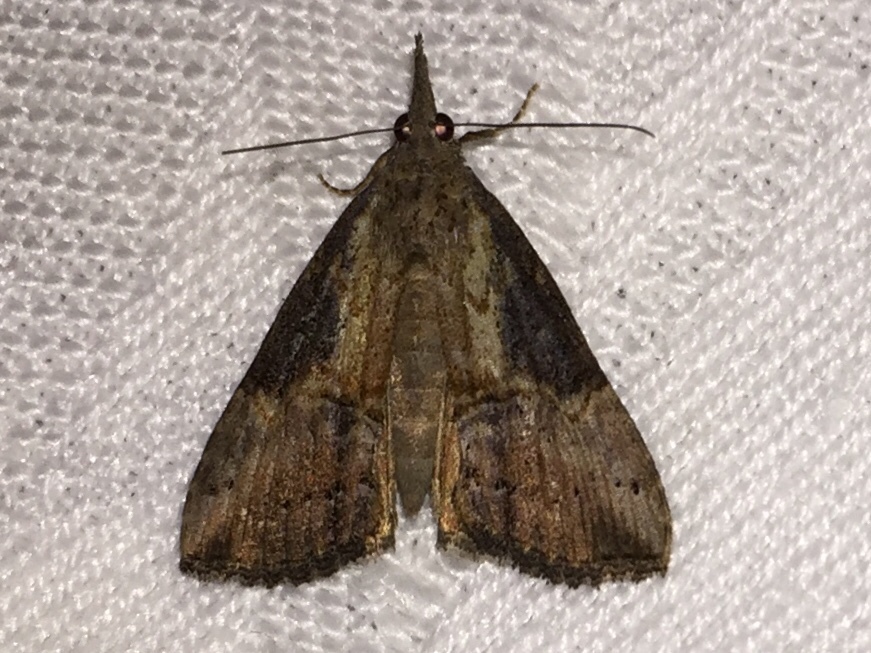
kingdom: Animalia
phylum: Arthropoda
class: Insecta
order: Lepidoptera
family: Erebidae
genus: Hypena
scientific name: Hypena scabra
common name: Green cloverworm
